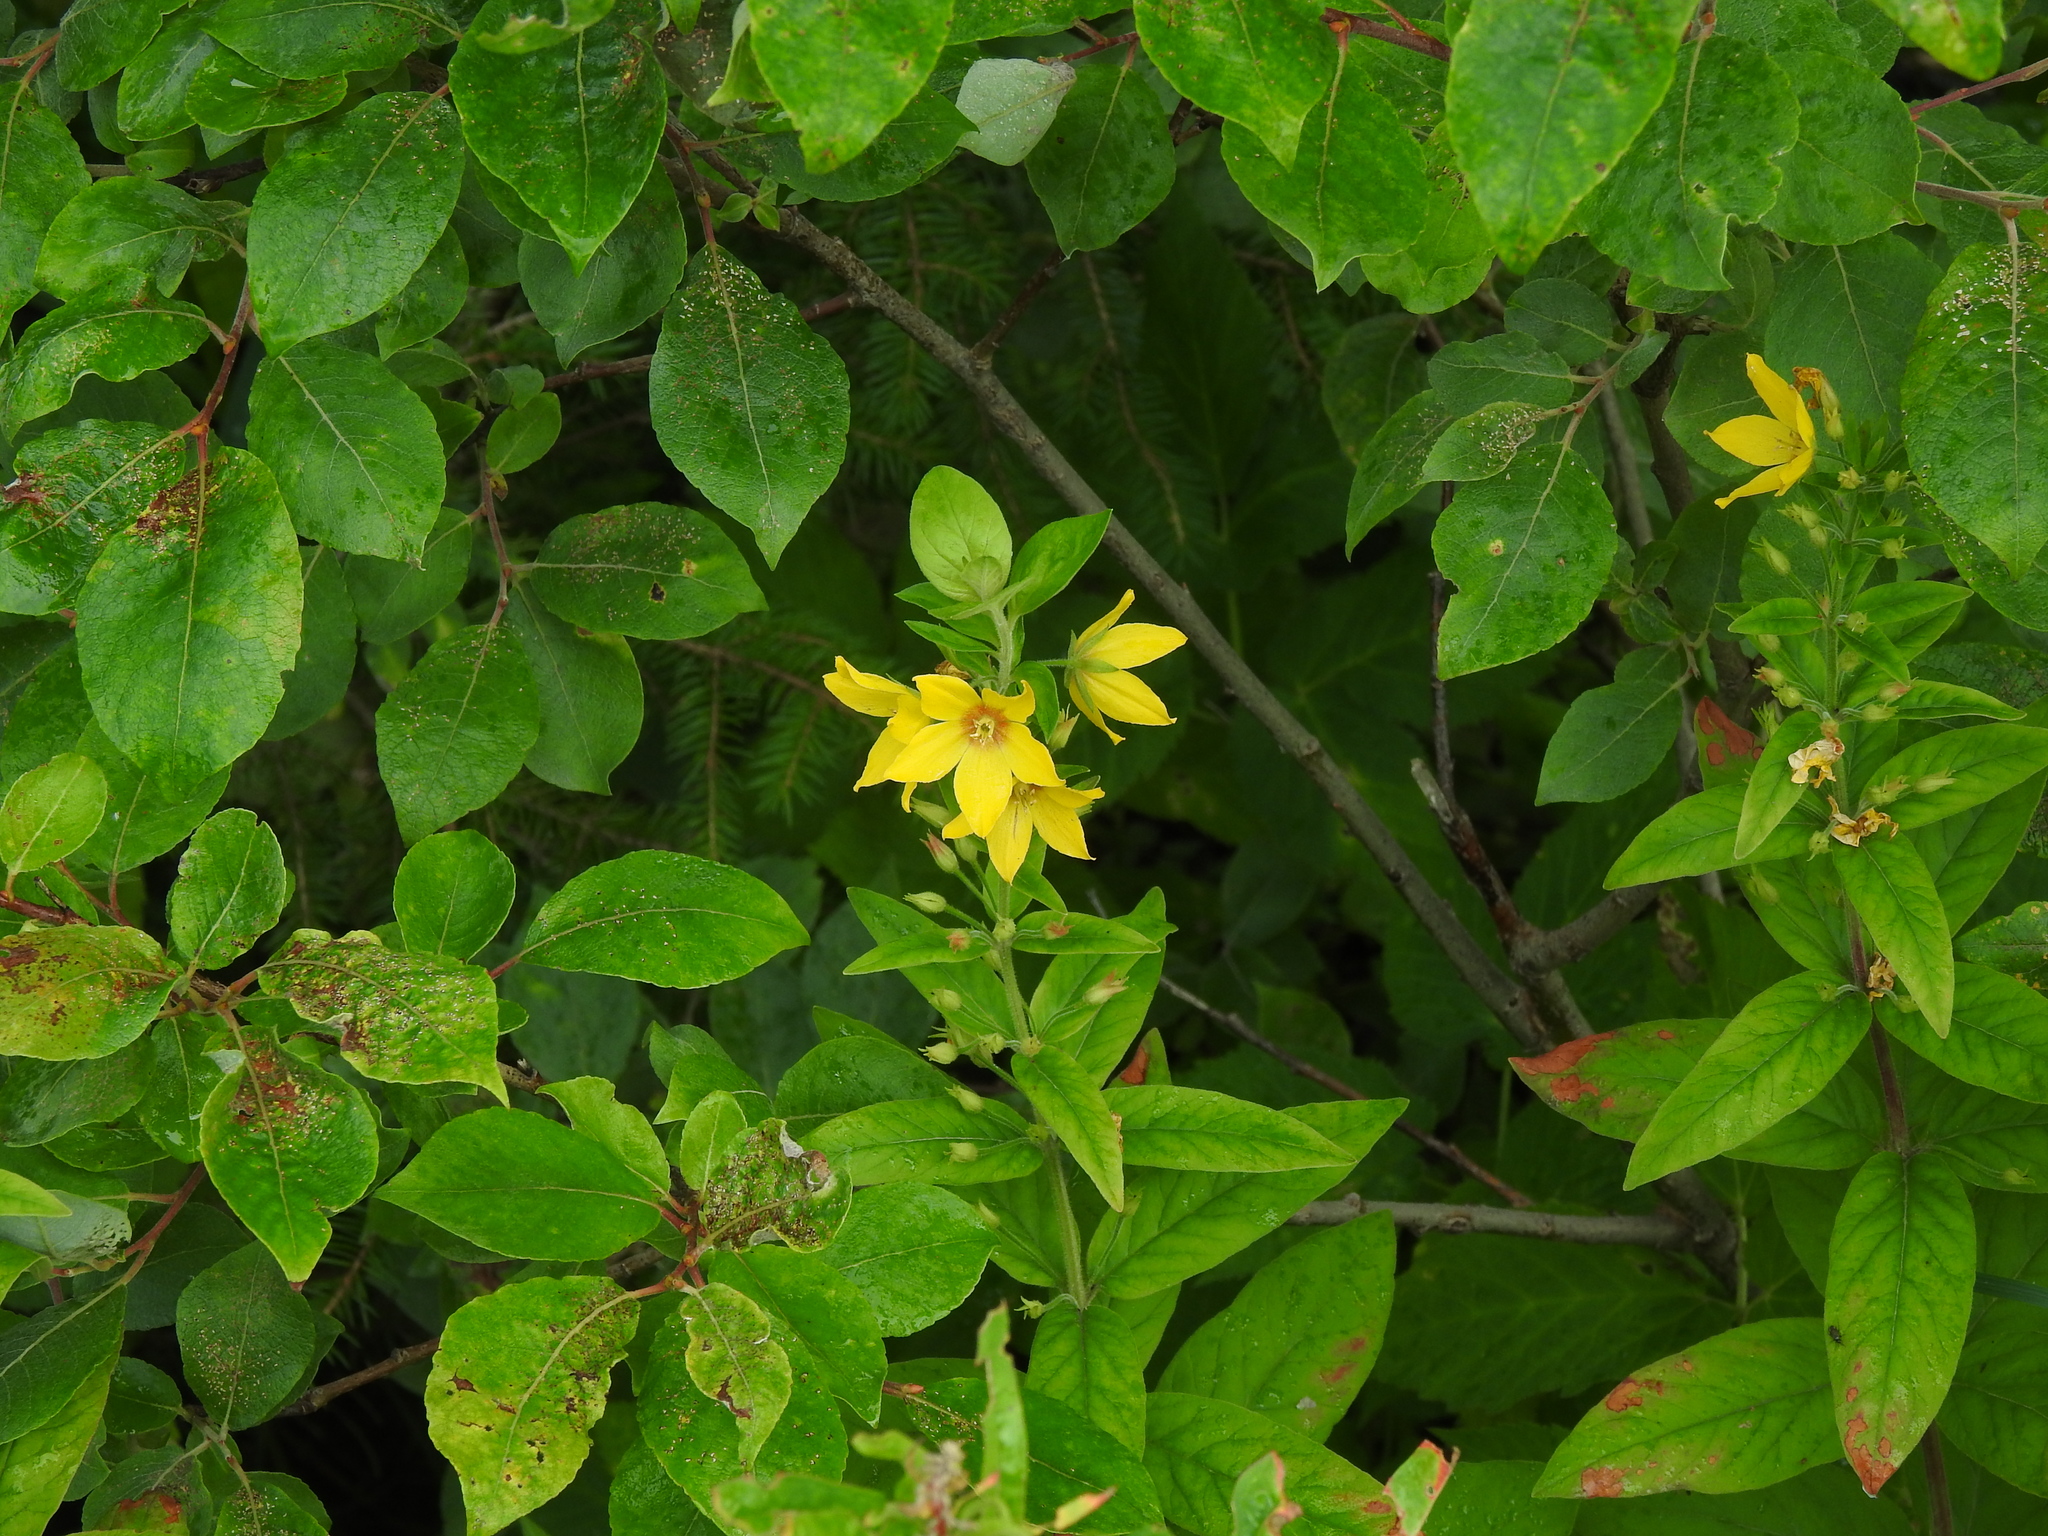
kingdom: Plantae
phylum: Tracheophyta
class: Magnoliopsida
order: Ericales
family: Primulaceae
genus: Lysimachia
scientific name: Lysimachia punctata
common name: Dotted loosestrife
